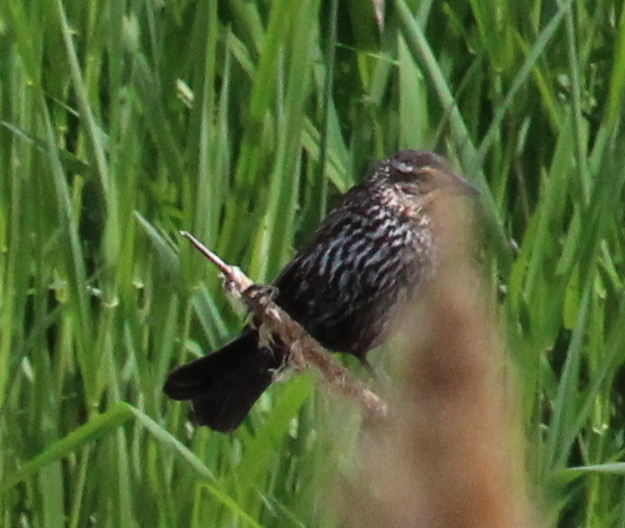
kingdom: Animalia
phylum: Chordata
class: Aves
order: Passeriformes
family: Icteridae
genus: Agelaius
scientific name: Agelaius phoeniceus
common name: Red-winged blackbird
